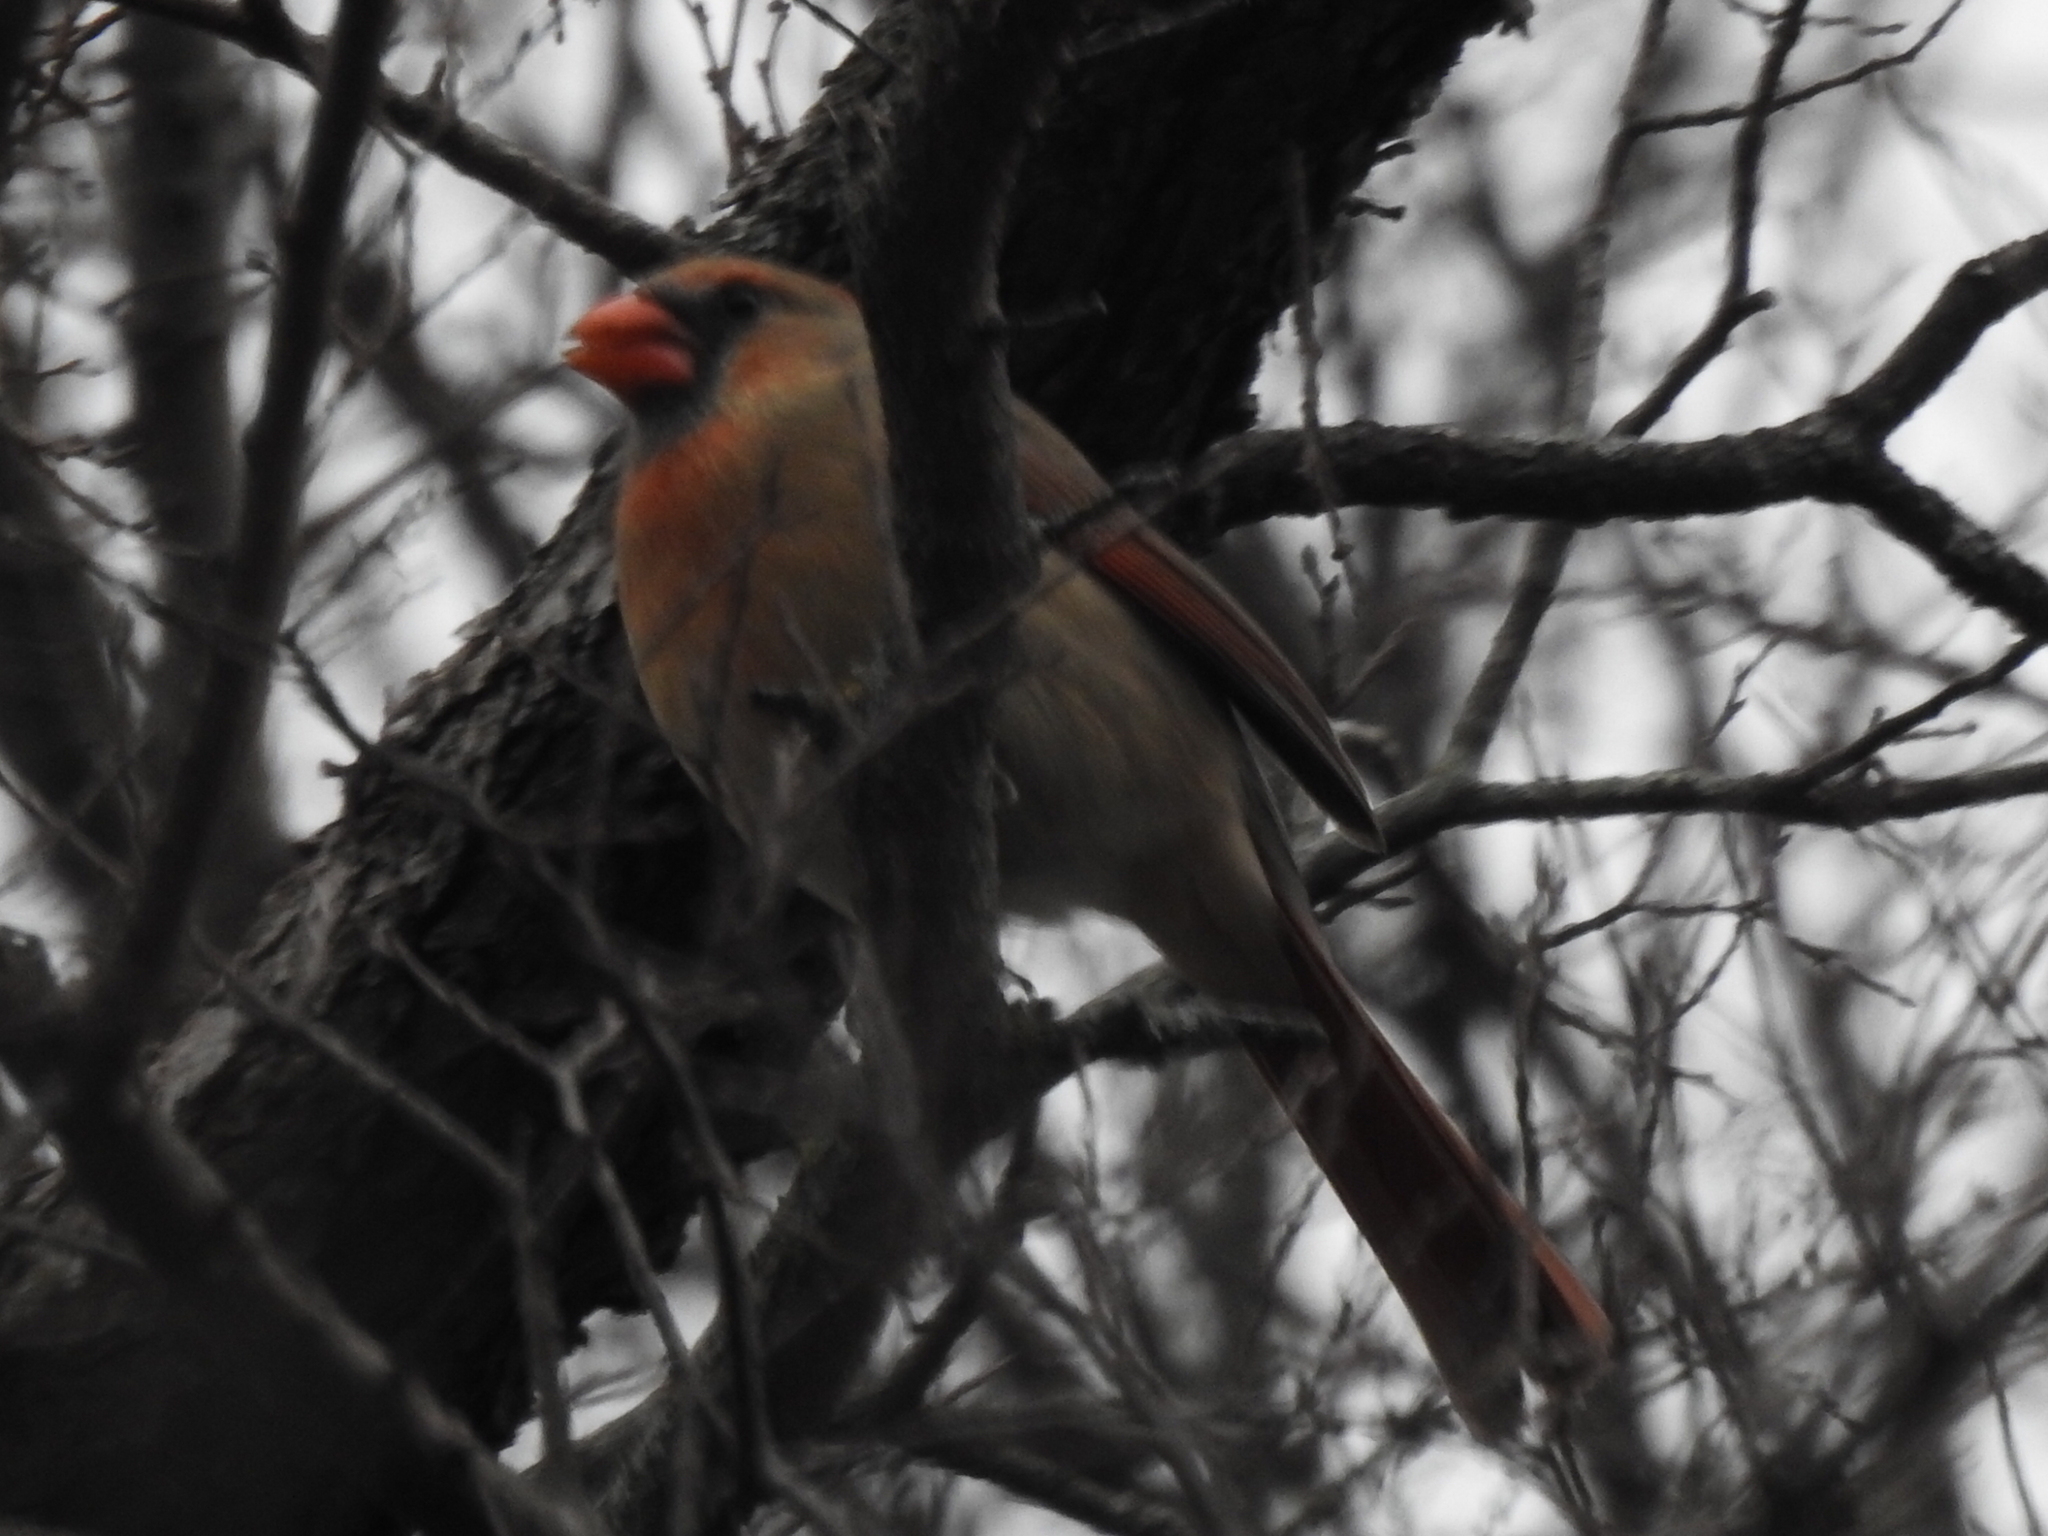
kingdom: Animalia
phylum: Chordata
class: Aves
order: Passeriformes
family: Cardinalidae
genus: Cardinalis
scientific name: Cardinalis cardinalis
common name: Northern cardinal
